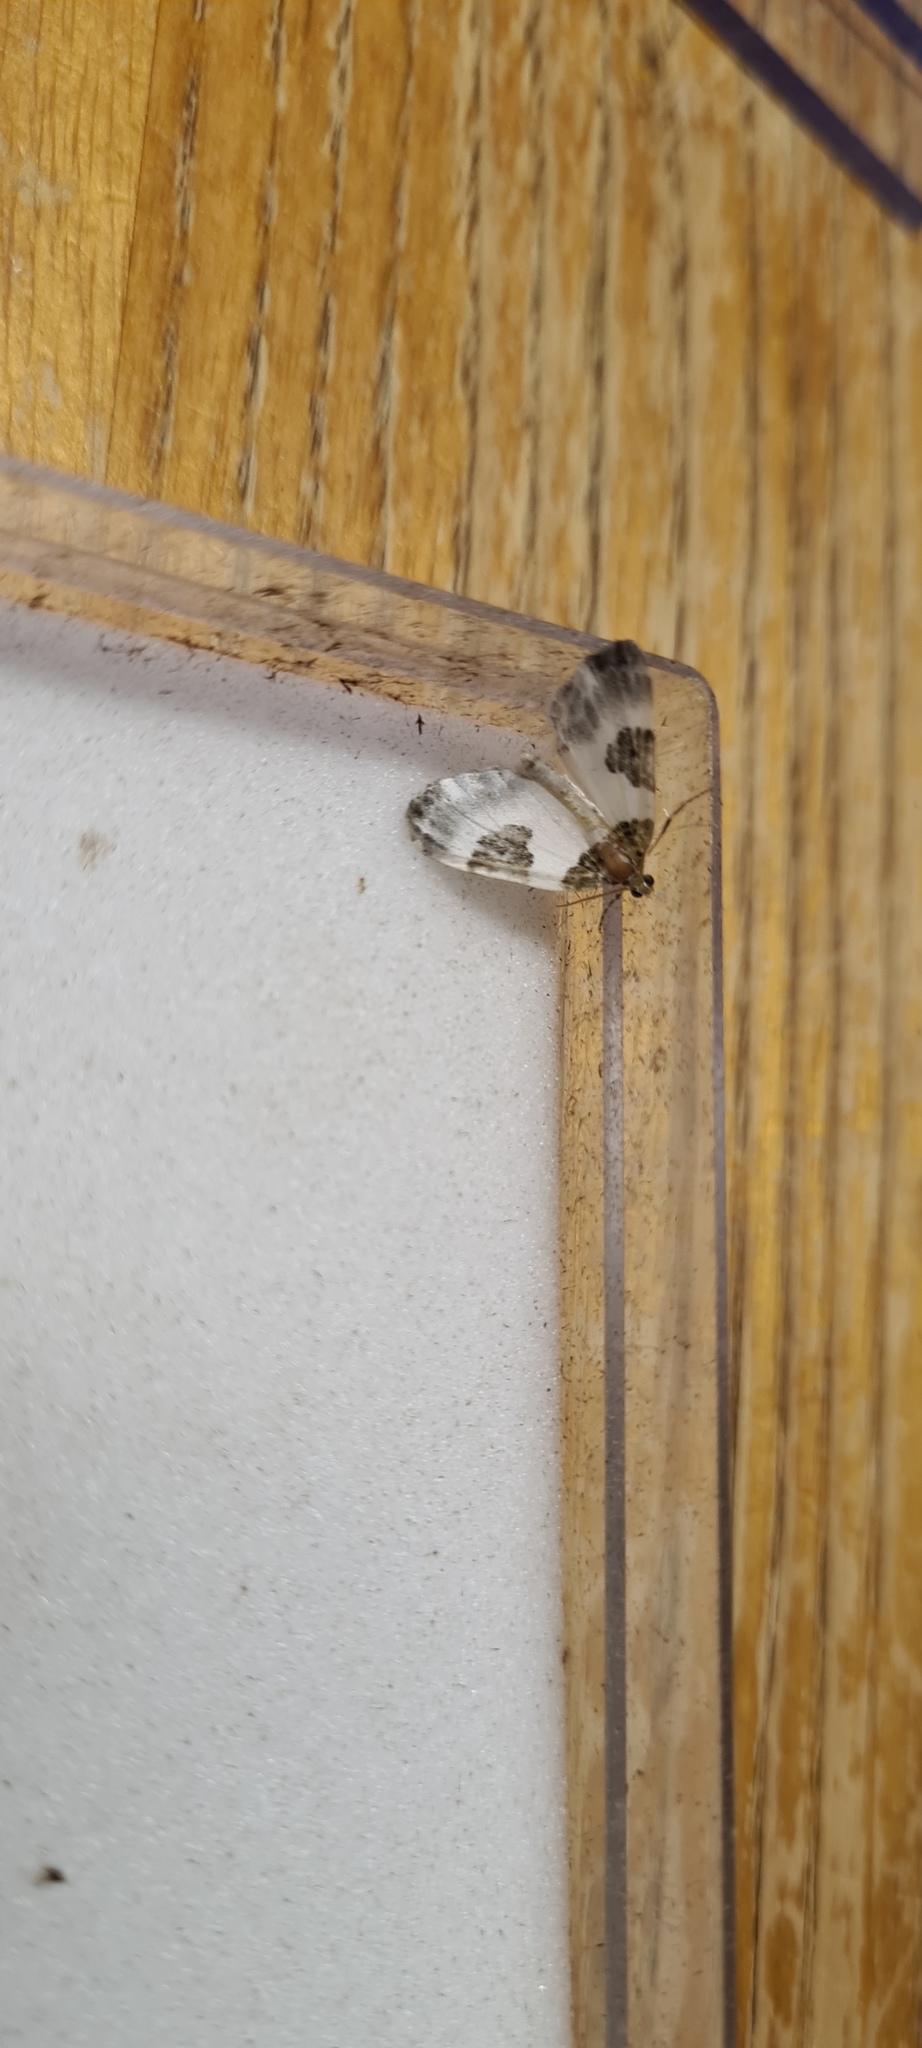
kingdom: Animalia
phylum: Arthropoda
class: Insecta
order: Lepidoptera
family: Geometridae
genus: Plemyria
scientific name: Plemyria rubiginata
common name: Blue-bordered carpet
